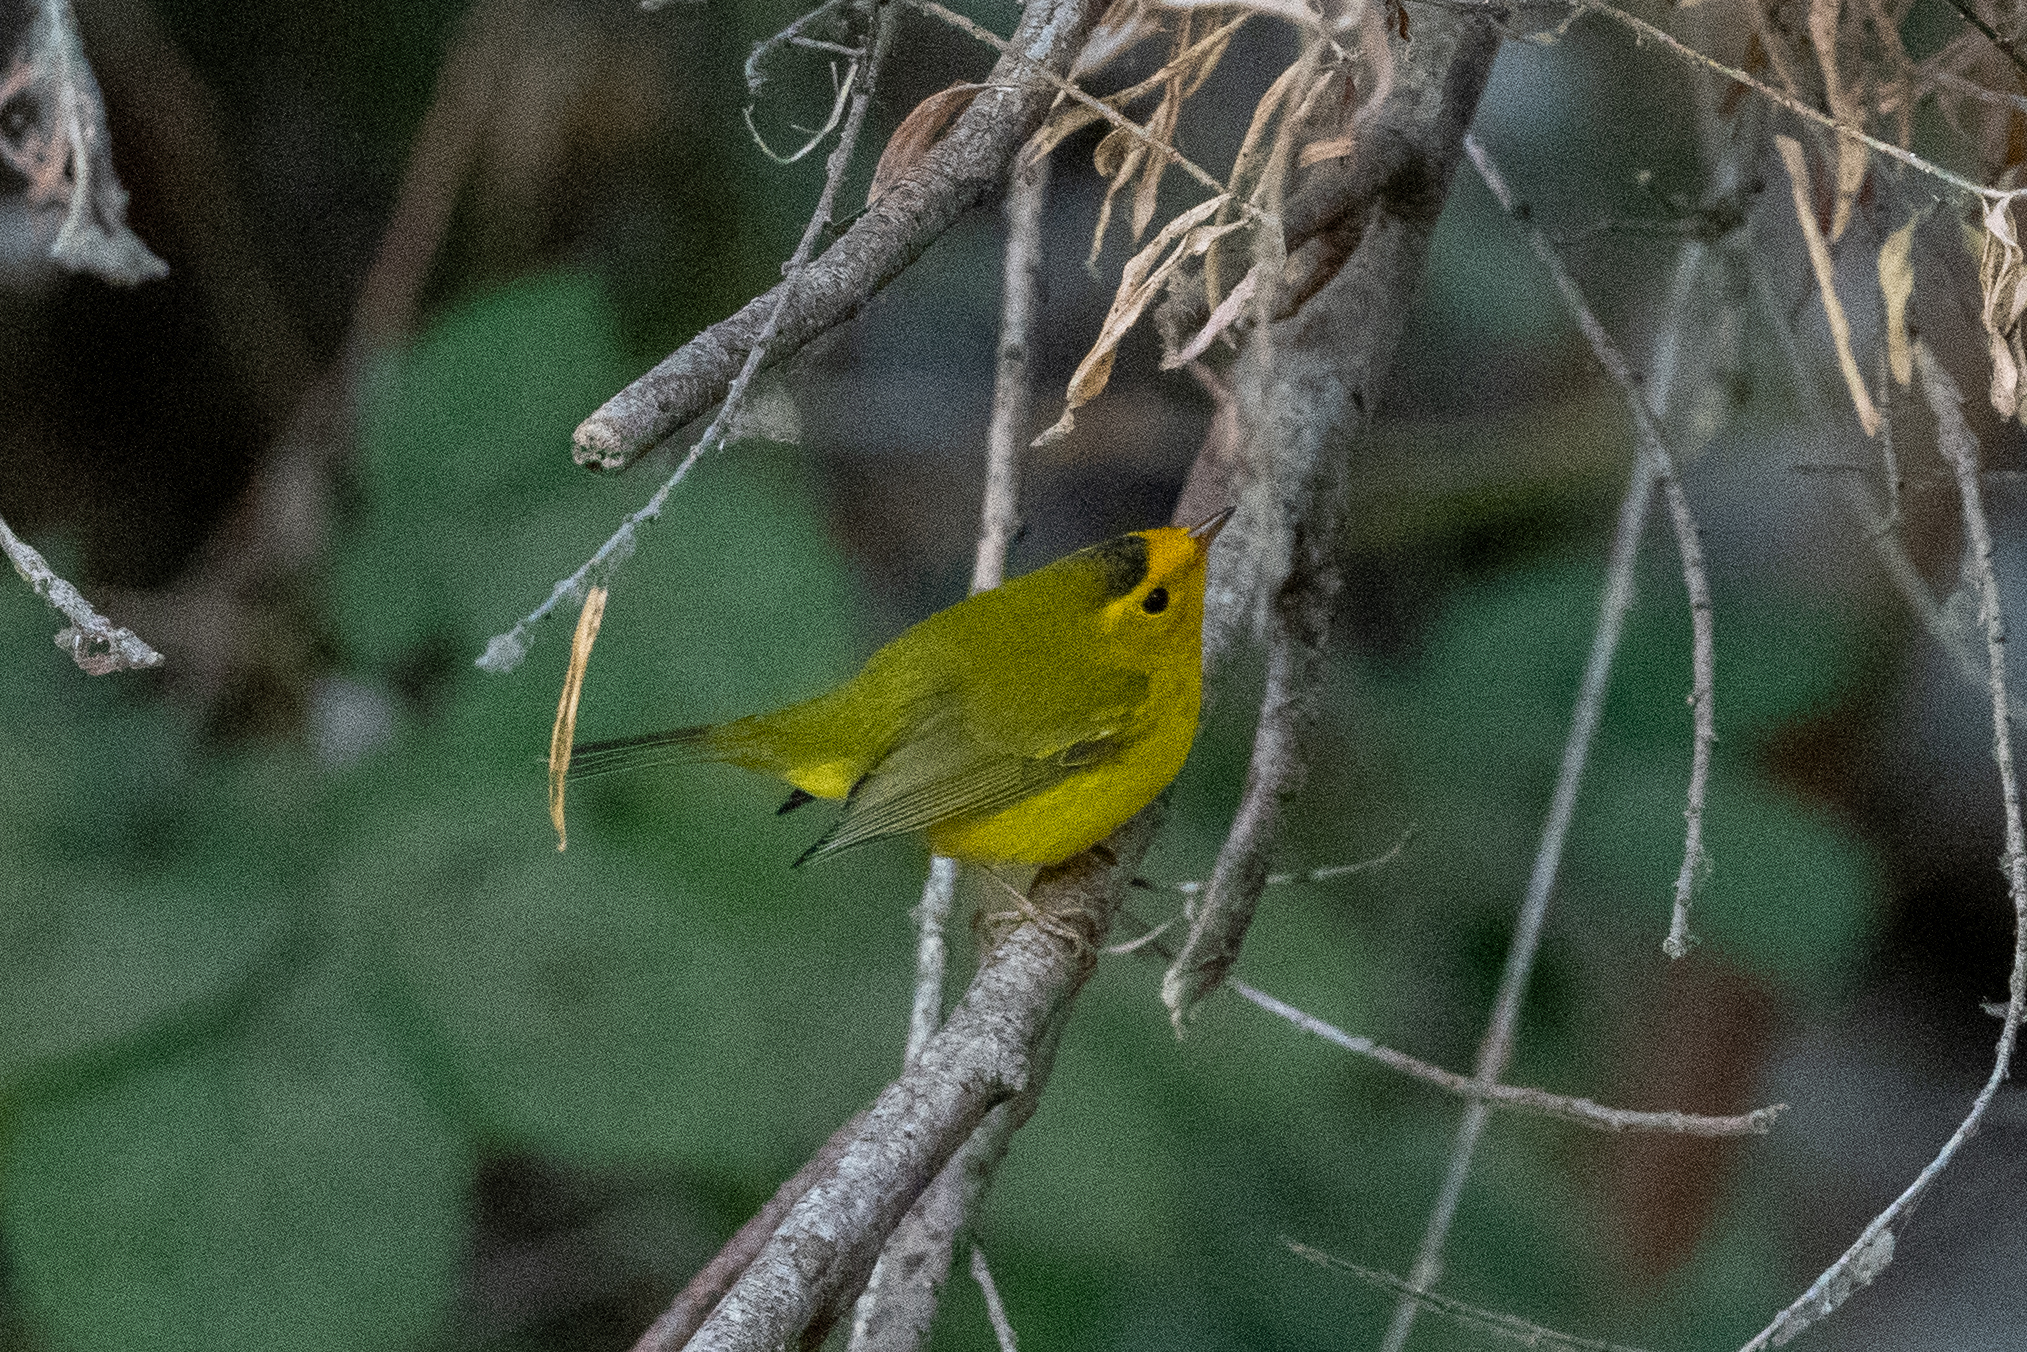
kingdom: Animalia
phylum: Chordata
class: Aves
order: Passeriformes
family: Parulidae
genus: Cardellina
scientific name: Cardellina pusilla
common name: Wilson's warbler
